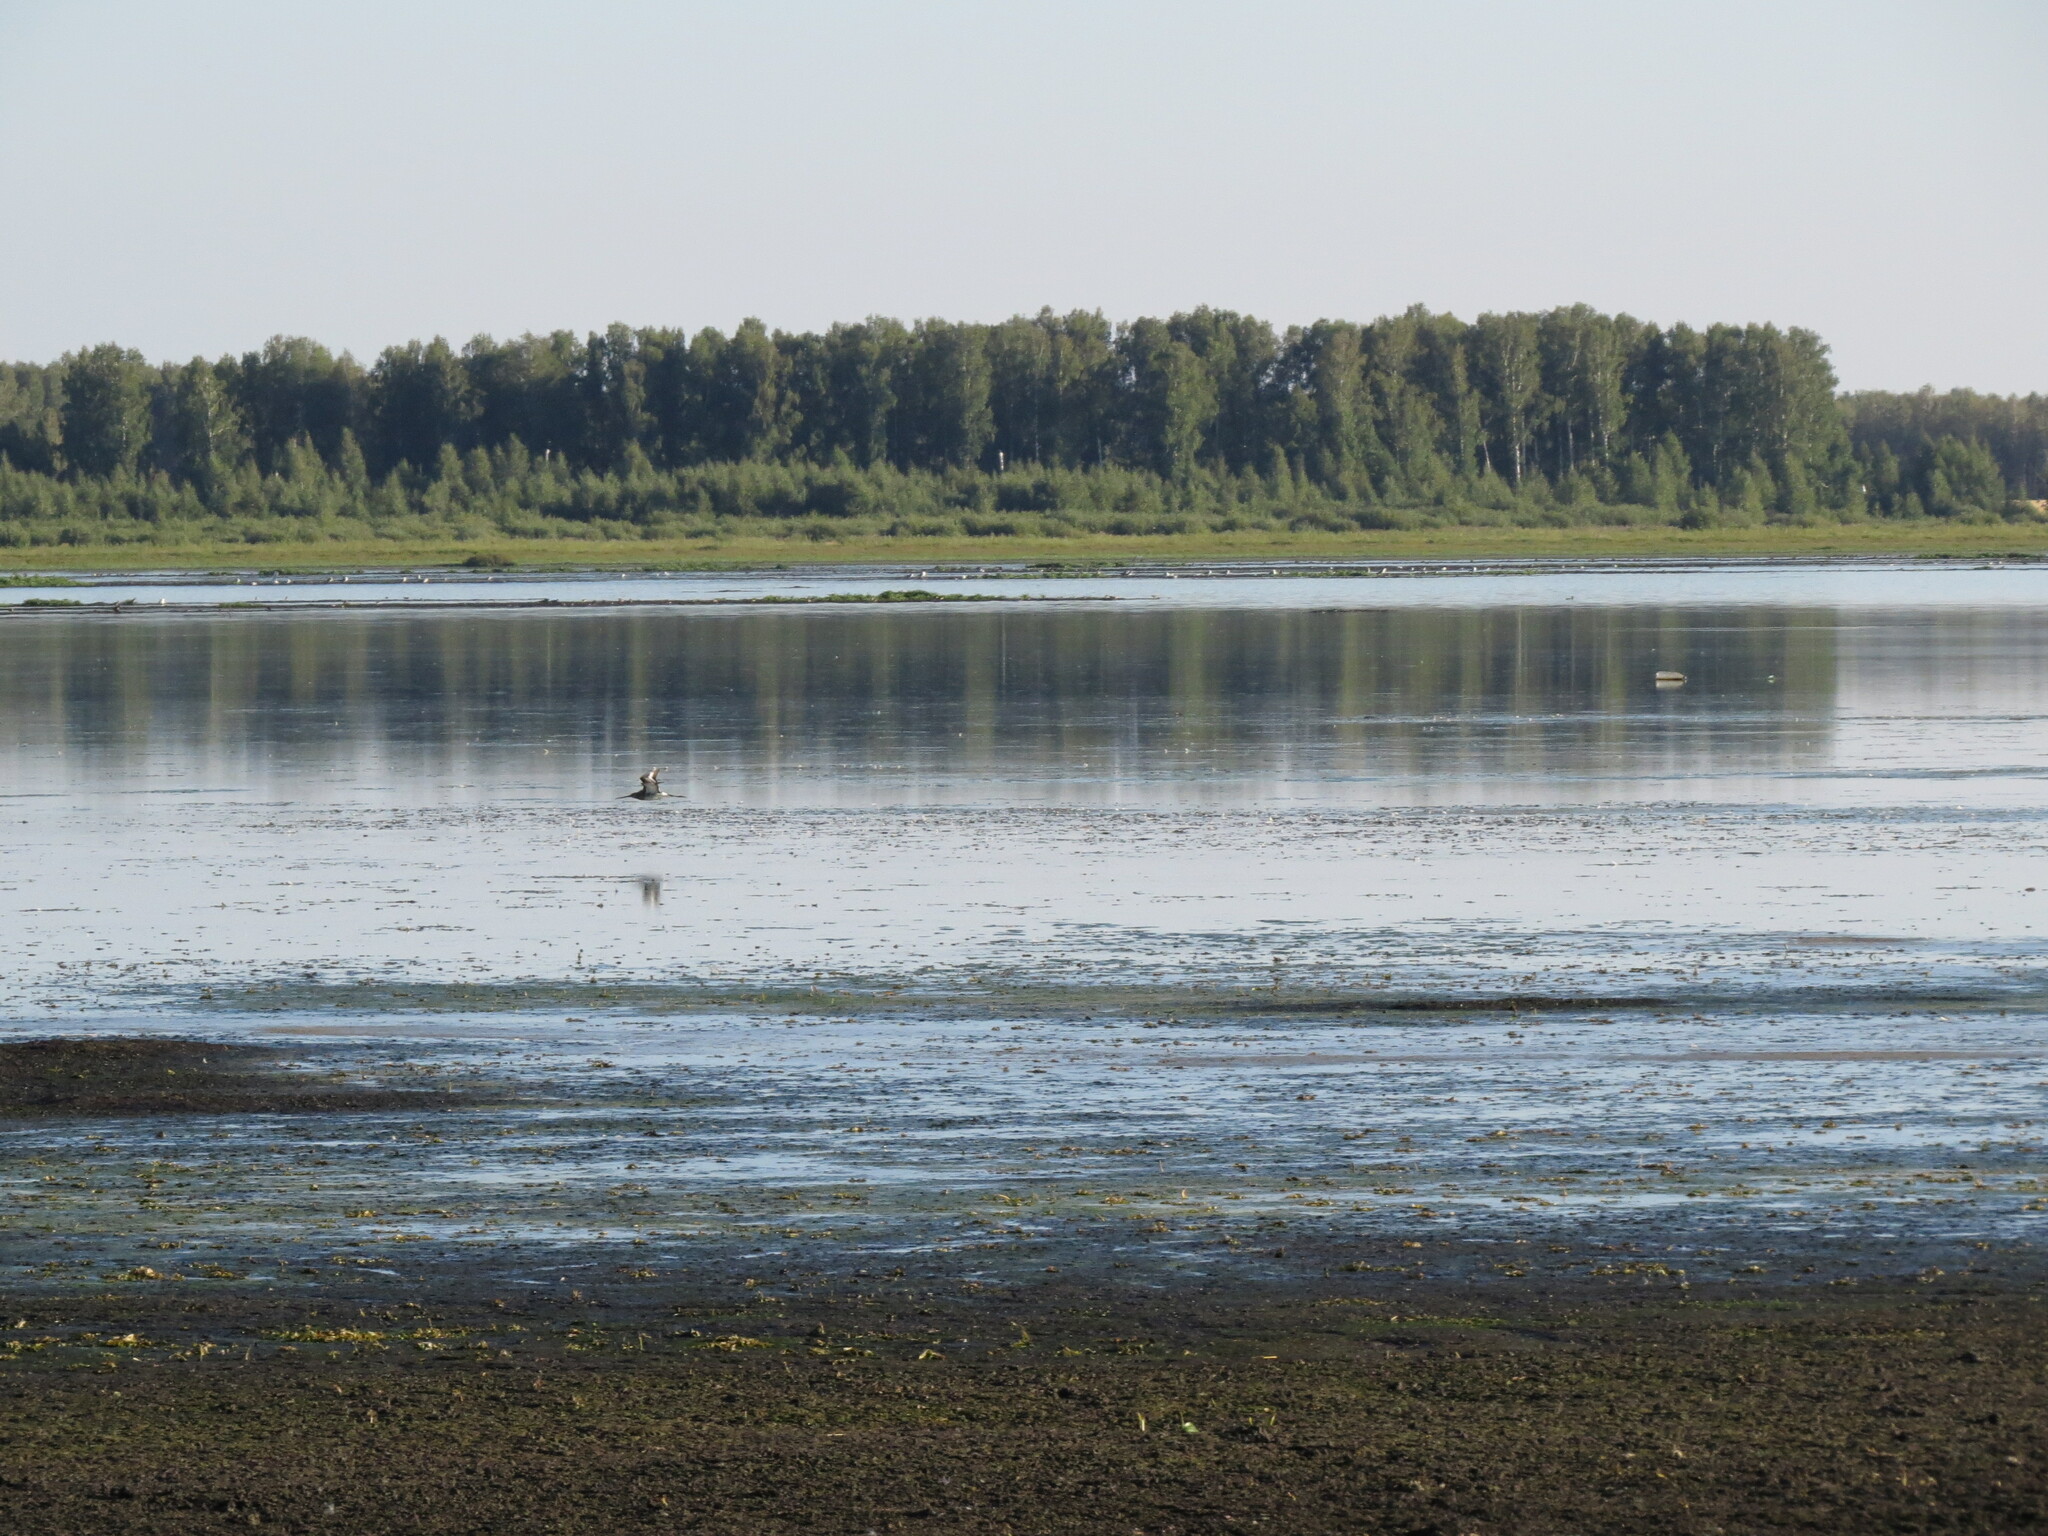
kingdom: Animalia
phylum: Chordata
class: Aves
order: Charadriiformes
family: Scolopacidae
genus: Limosa
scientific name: Limosa limosa
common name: Black-tailed godwit
